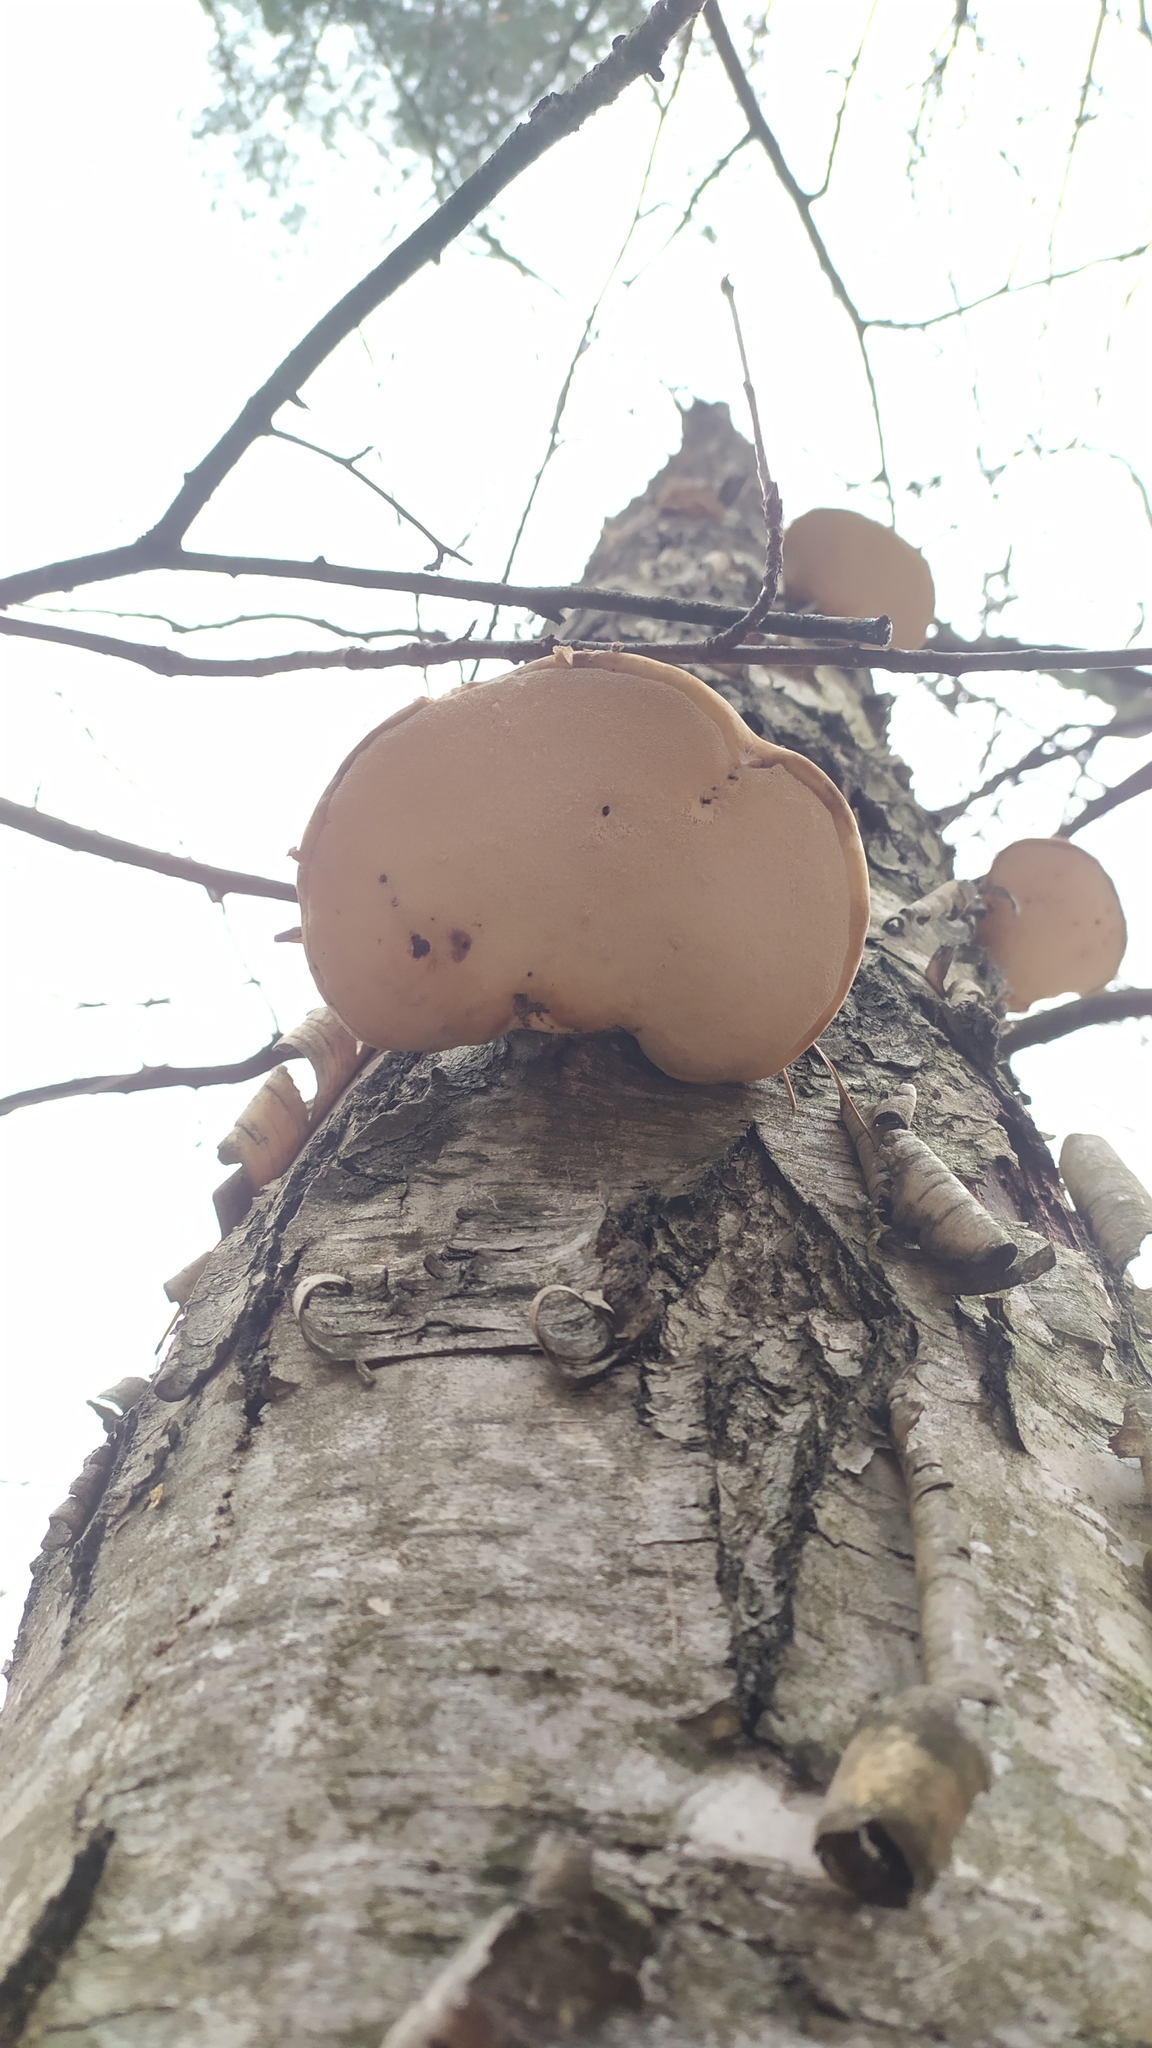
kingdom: Fungi
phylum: Basidiomycota
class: Agaricomycetes
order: Polyporales
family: Fomitopsidaceae
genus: Fomitopsis
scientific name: Fomitopsis betulina
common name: Birch polypore
